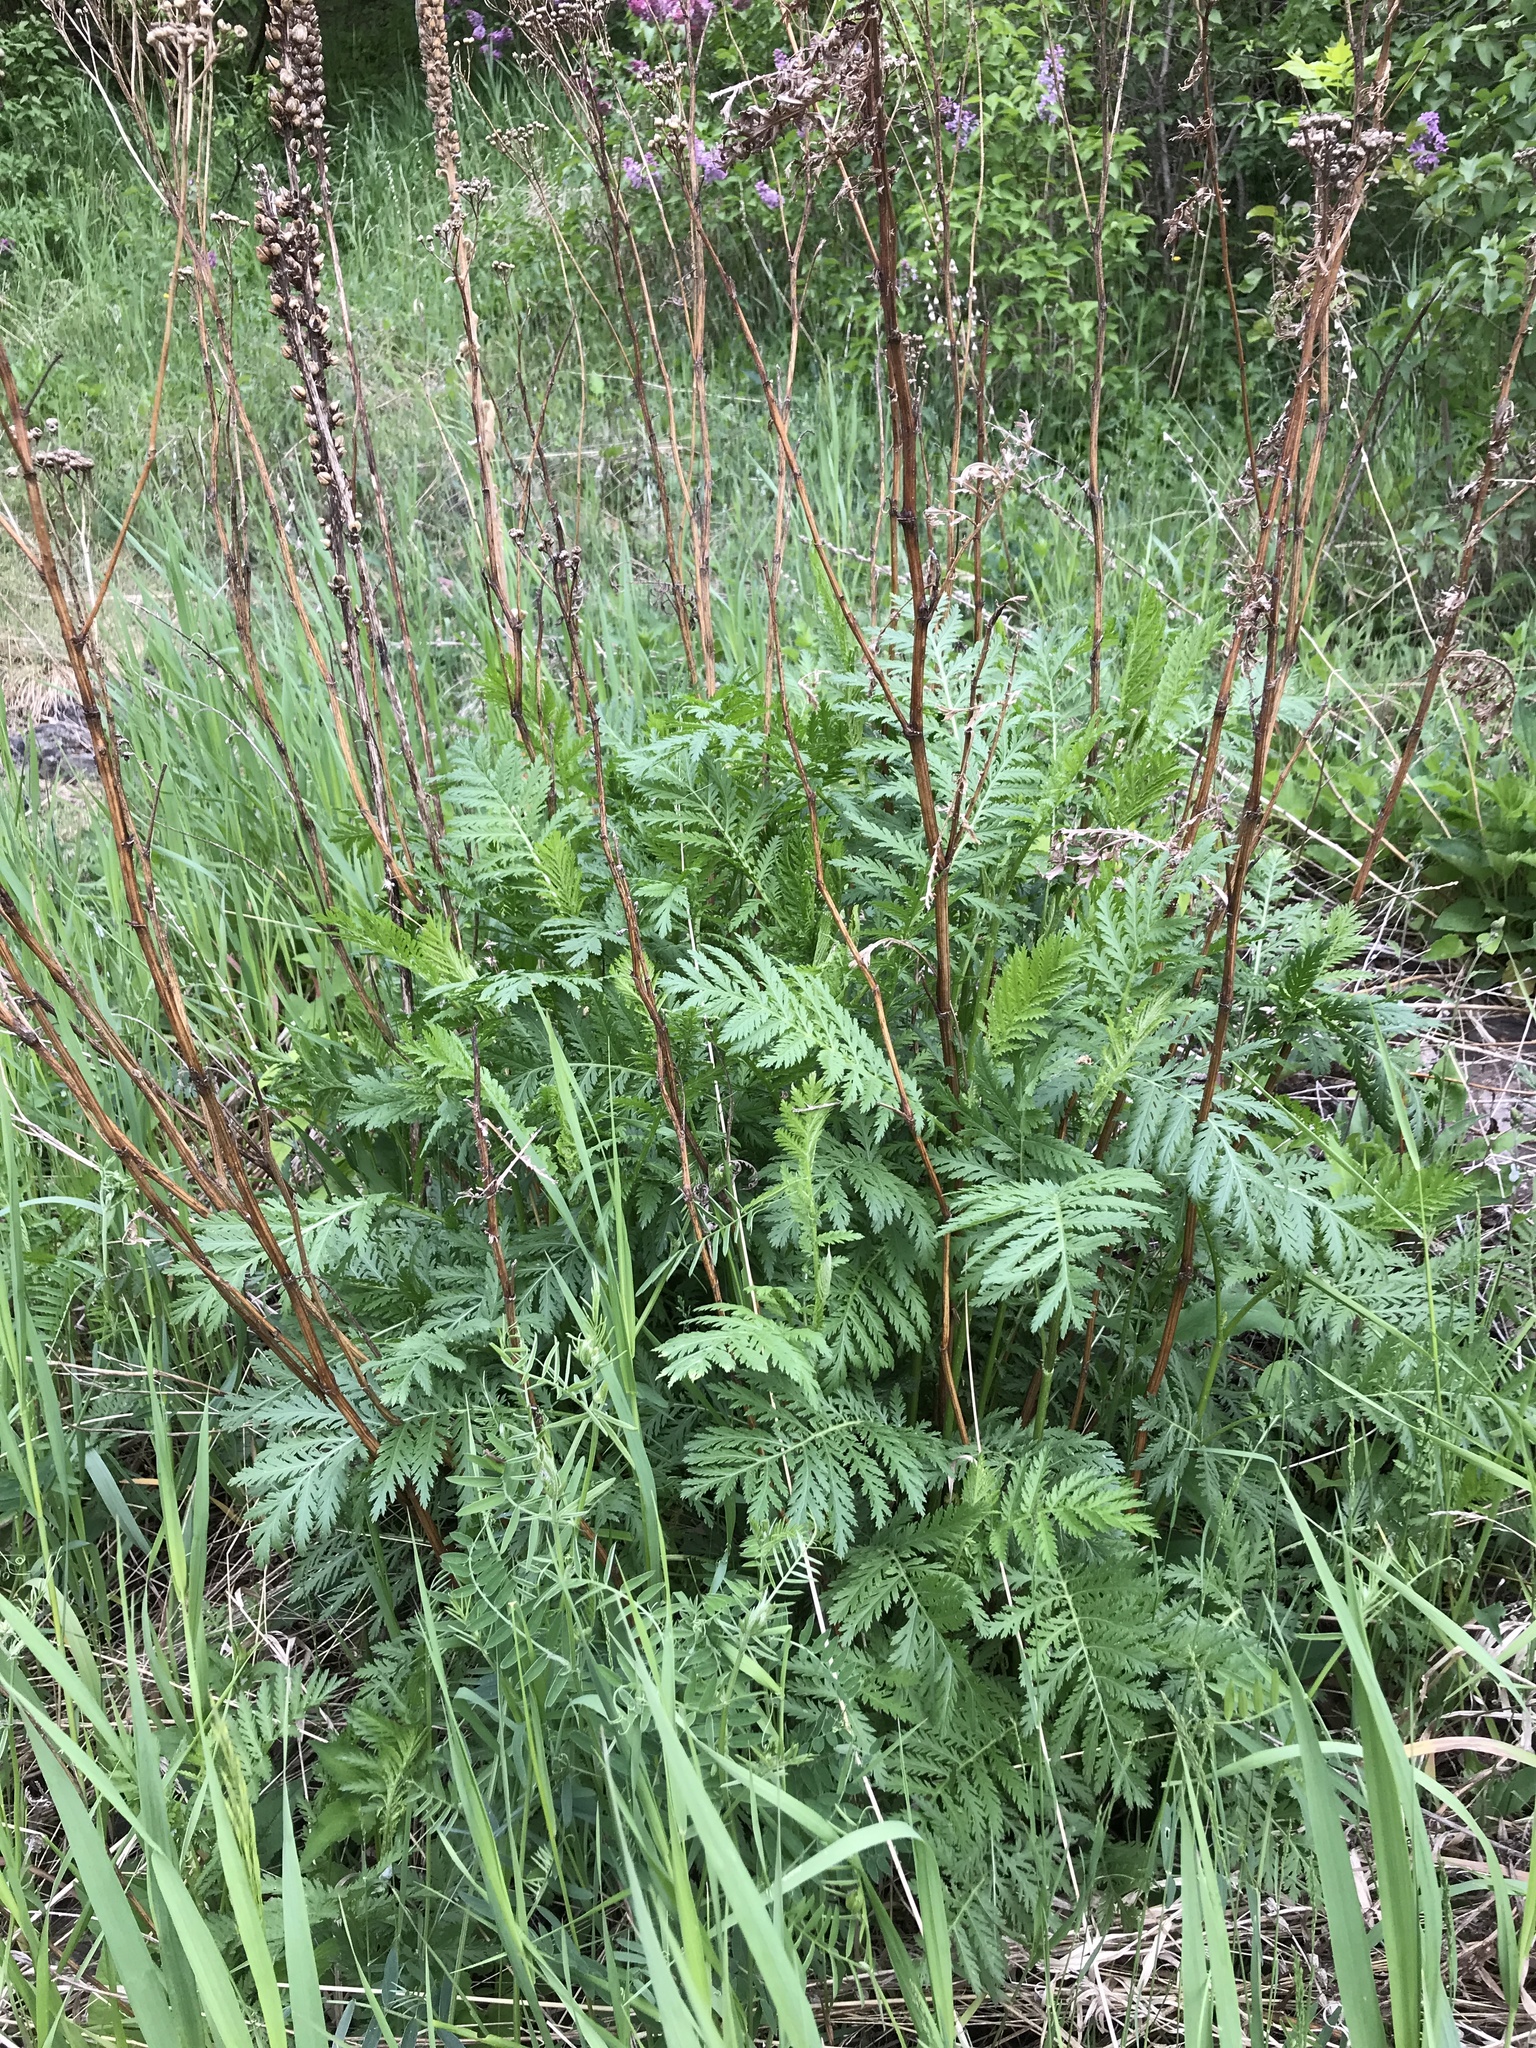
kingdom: Plantae
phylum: Tracheophyta
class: Magnoliopsida
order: Asterales
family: Asteraceae
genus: Tanacetum
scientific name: Tanacetum vulgare
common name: Common tansy
